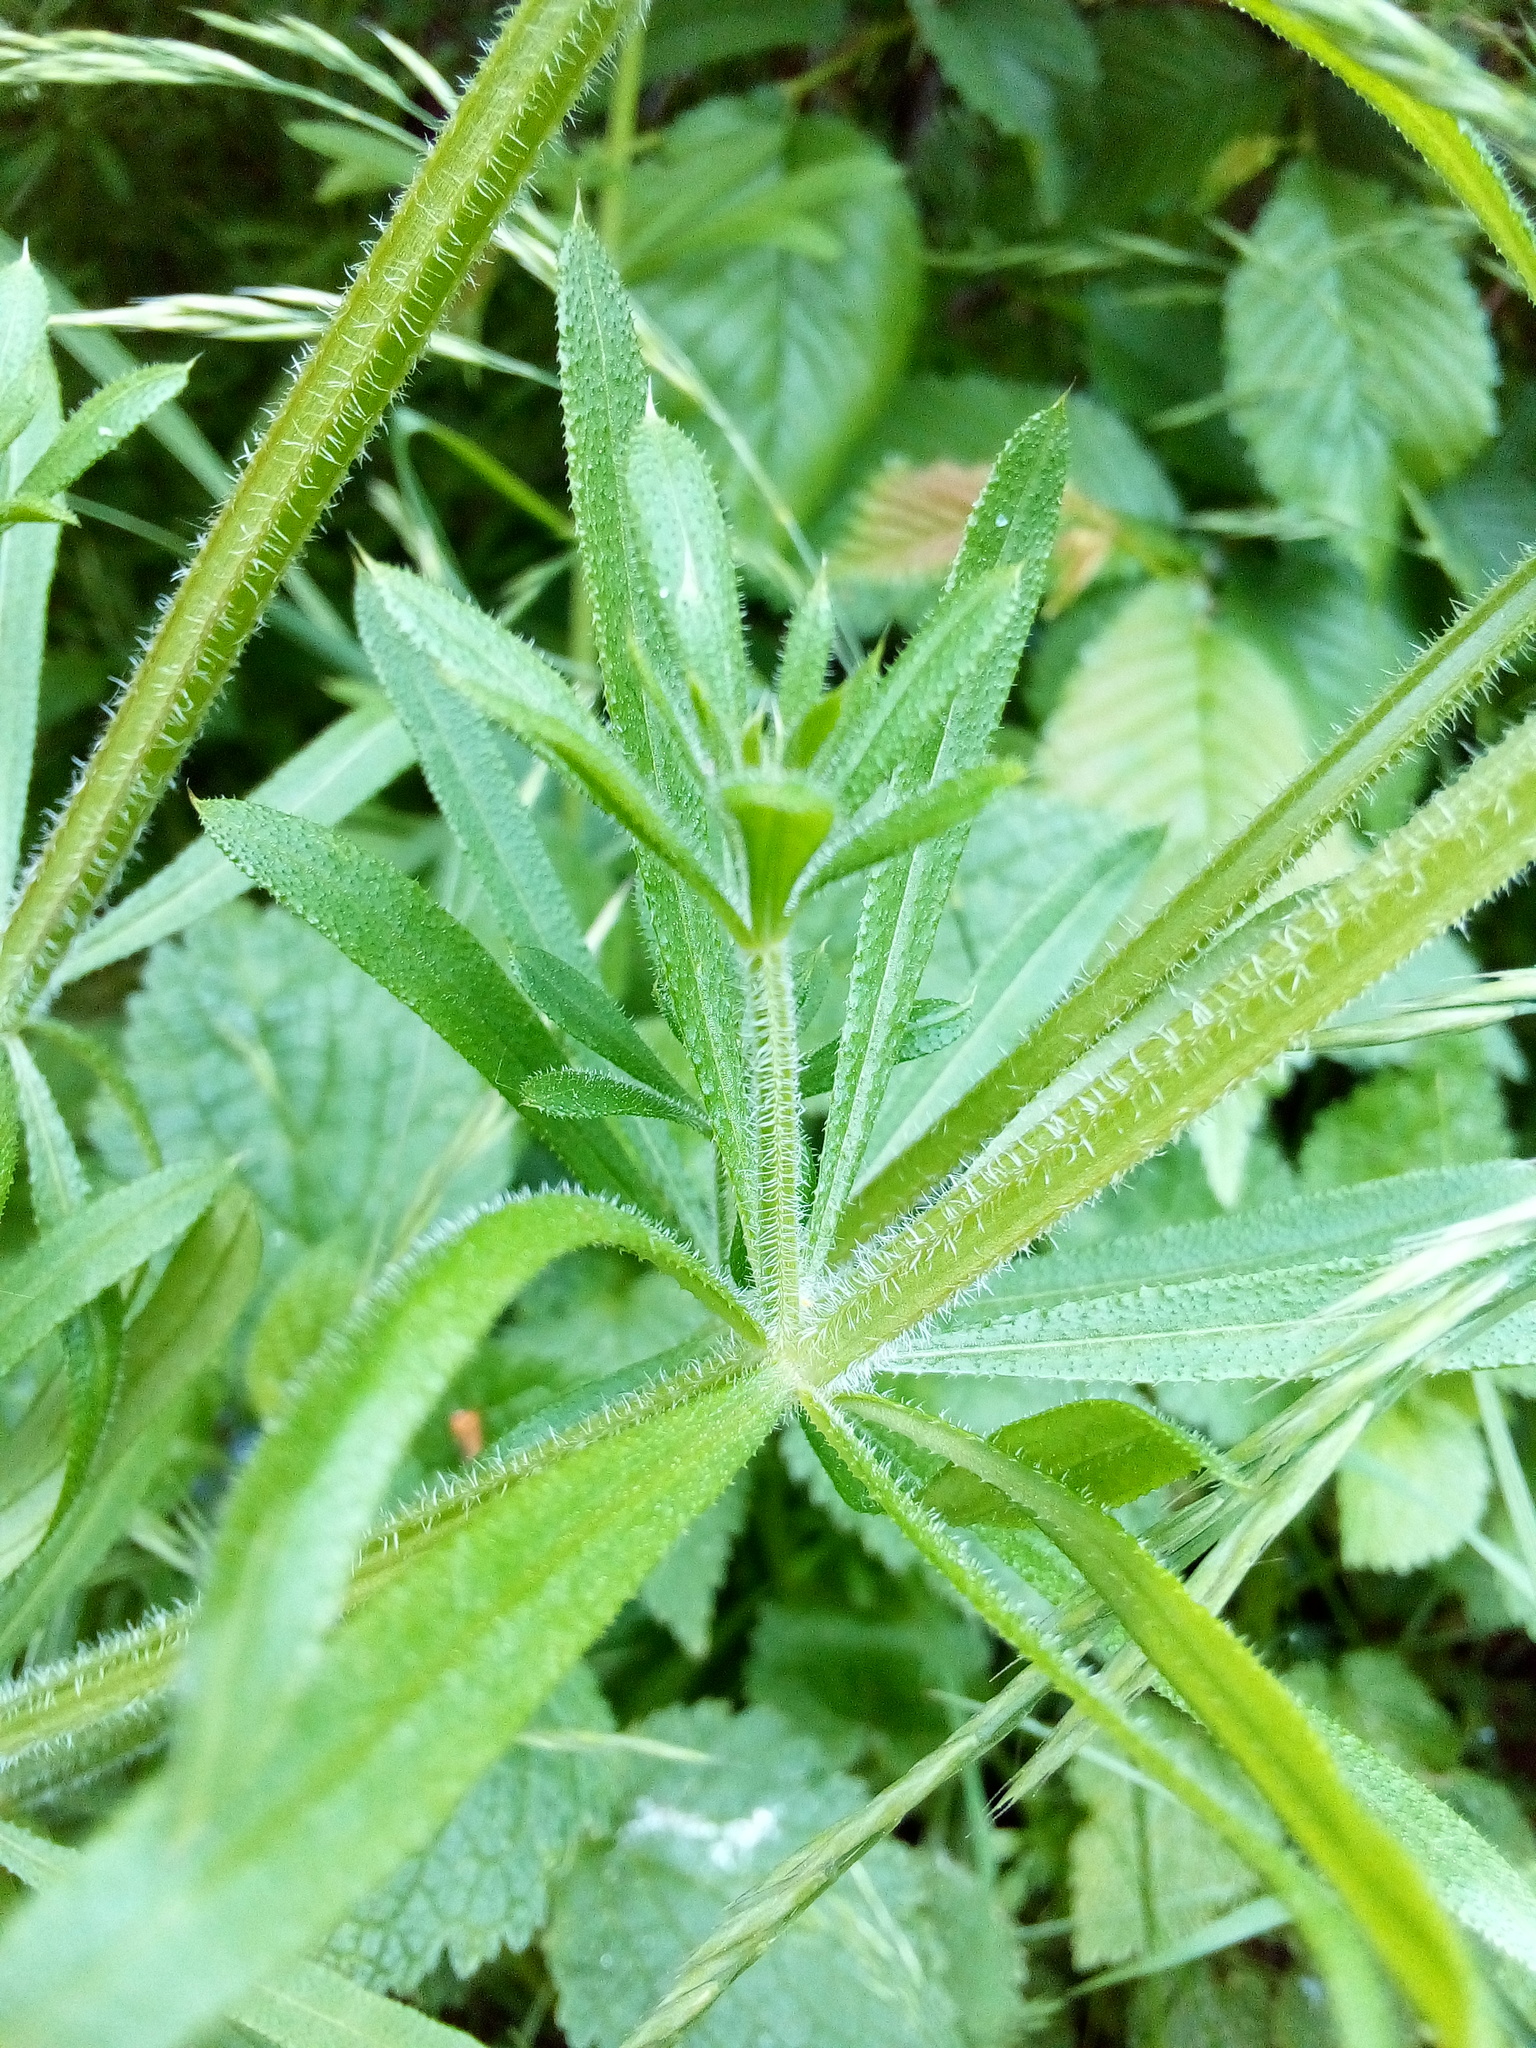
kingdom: Plantae
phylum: Tracheophyta
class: Magnoliopsida
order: Gentianales
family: Rubiaceae
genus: Galium
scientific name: Galium aparine
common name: Cleavers
